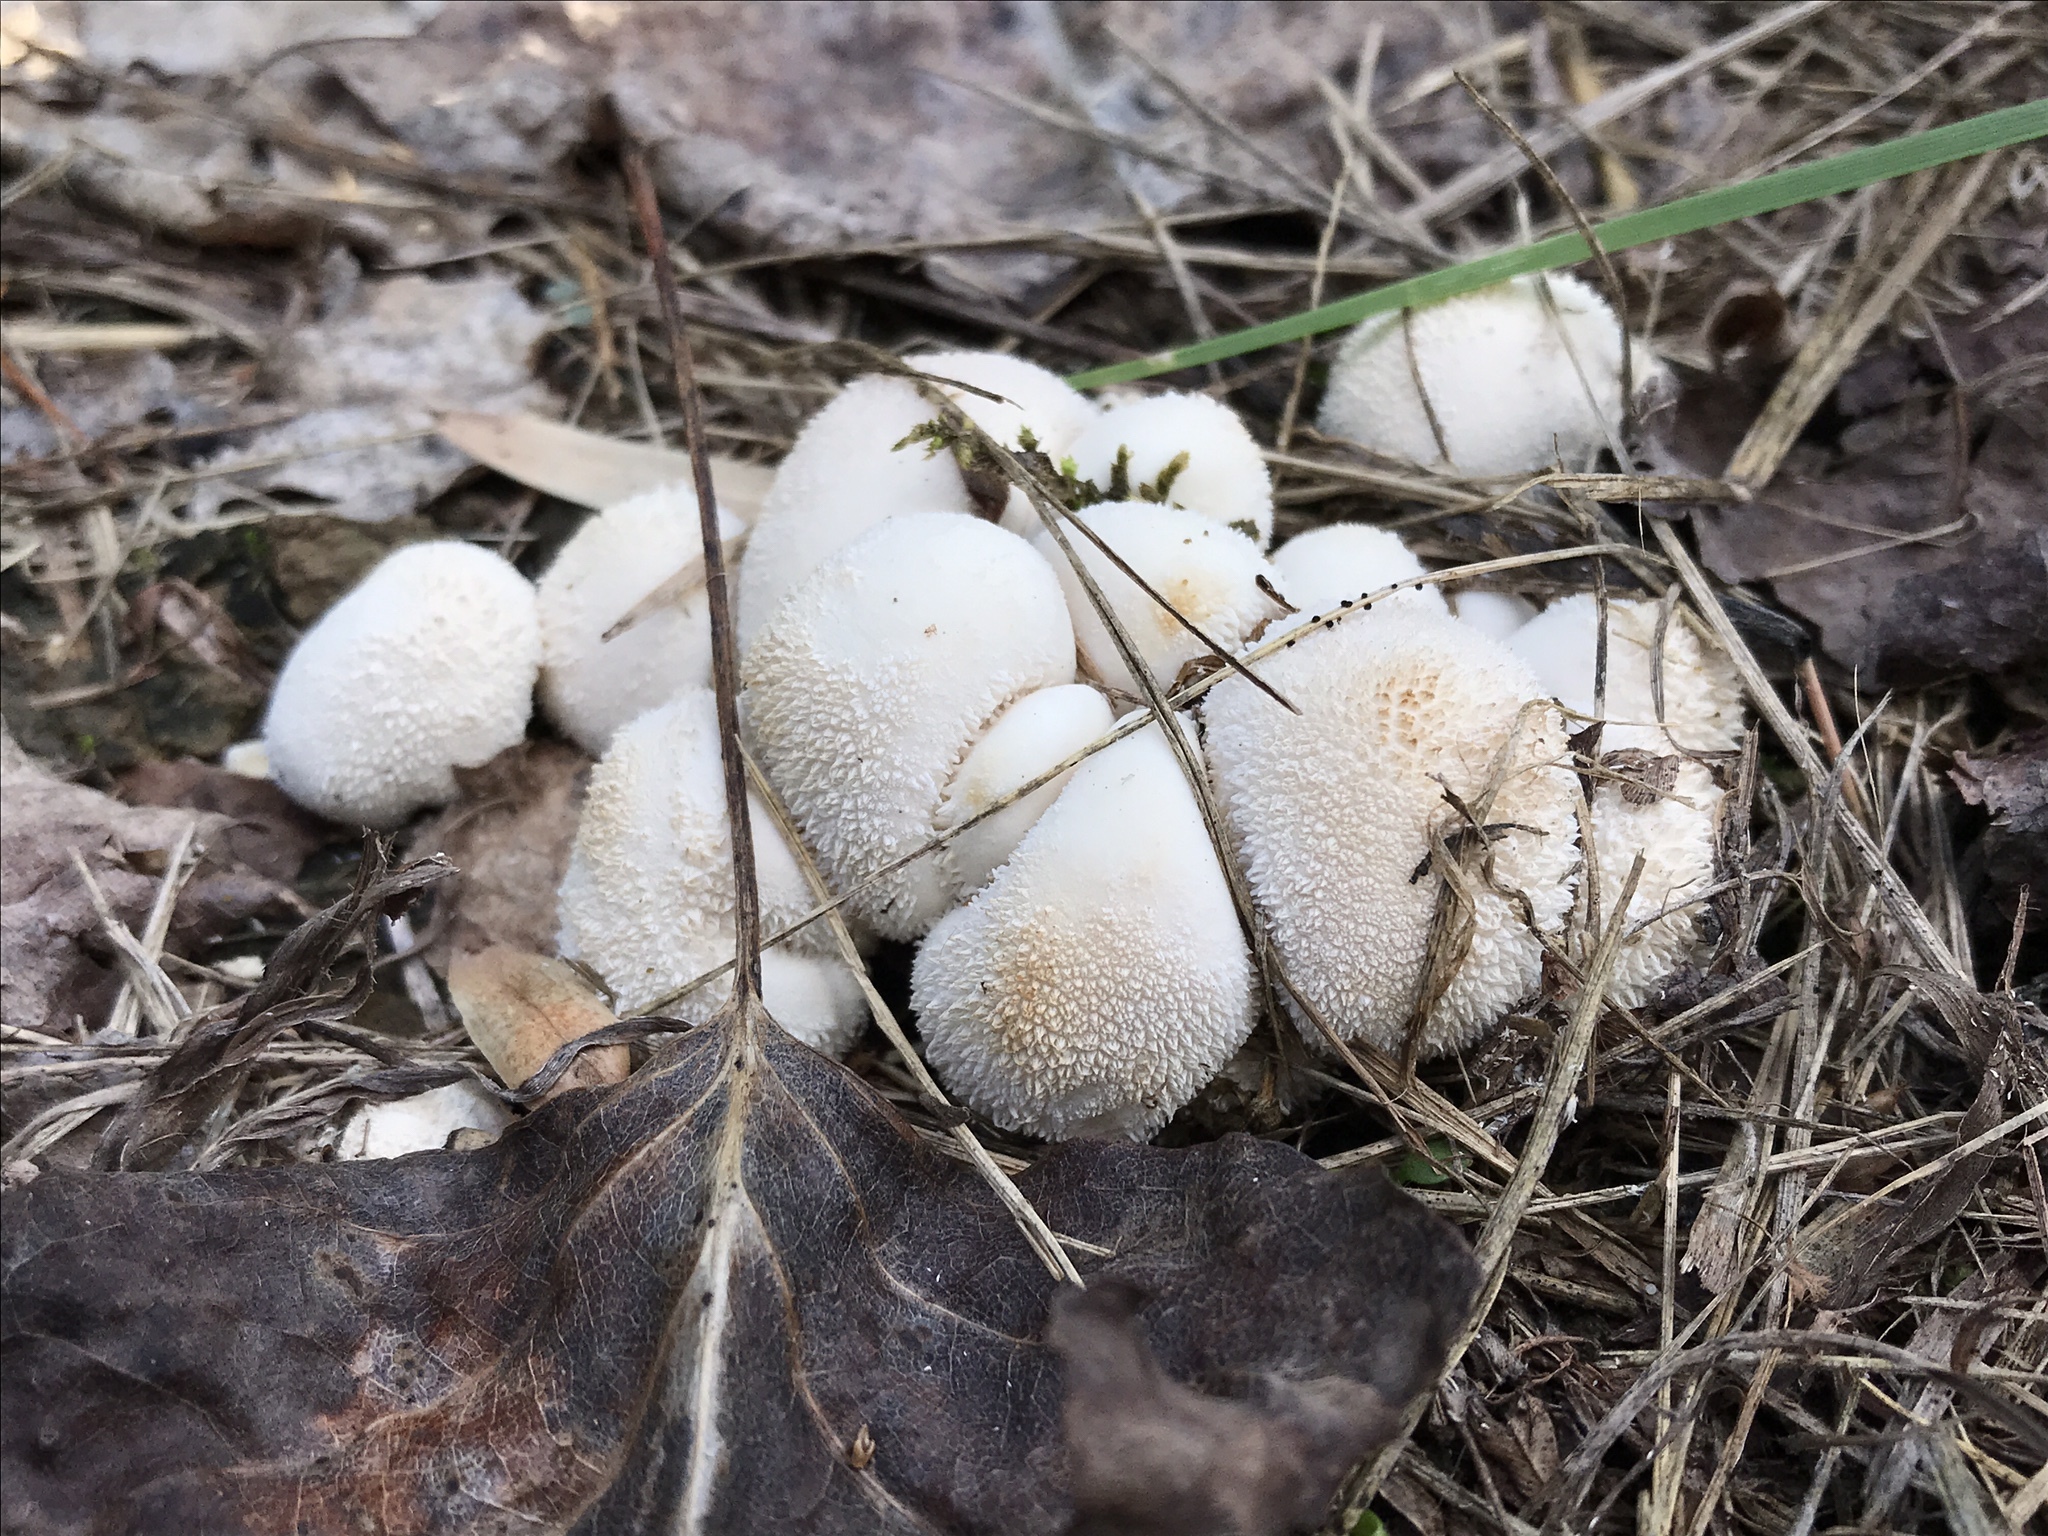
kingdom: Fungi
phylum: Basidiomycota
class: Agaricomycetes
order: Agaricales
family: Lycoperdaceae
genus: Lycoperdon
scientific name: Lycoperdon curtisii
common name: Curtis's puffball
